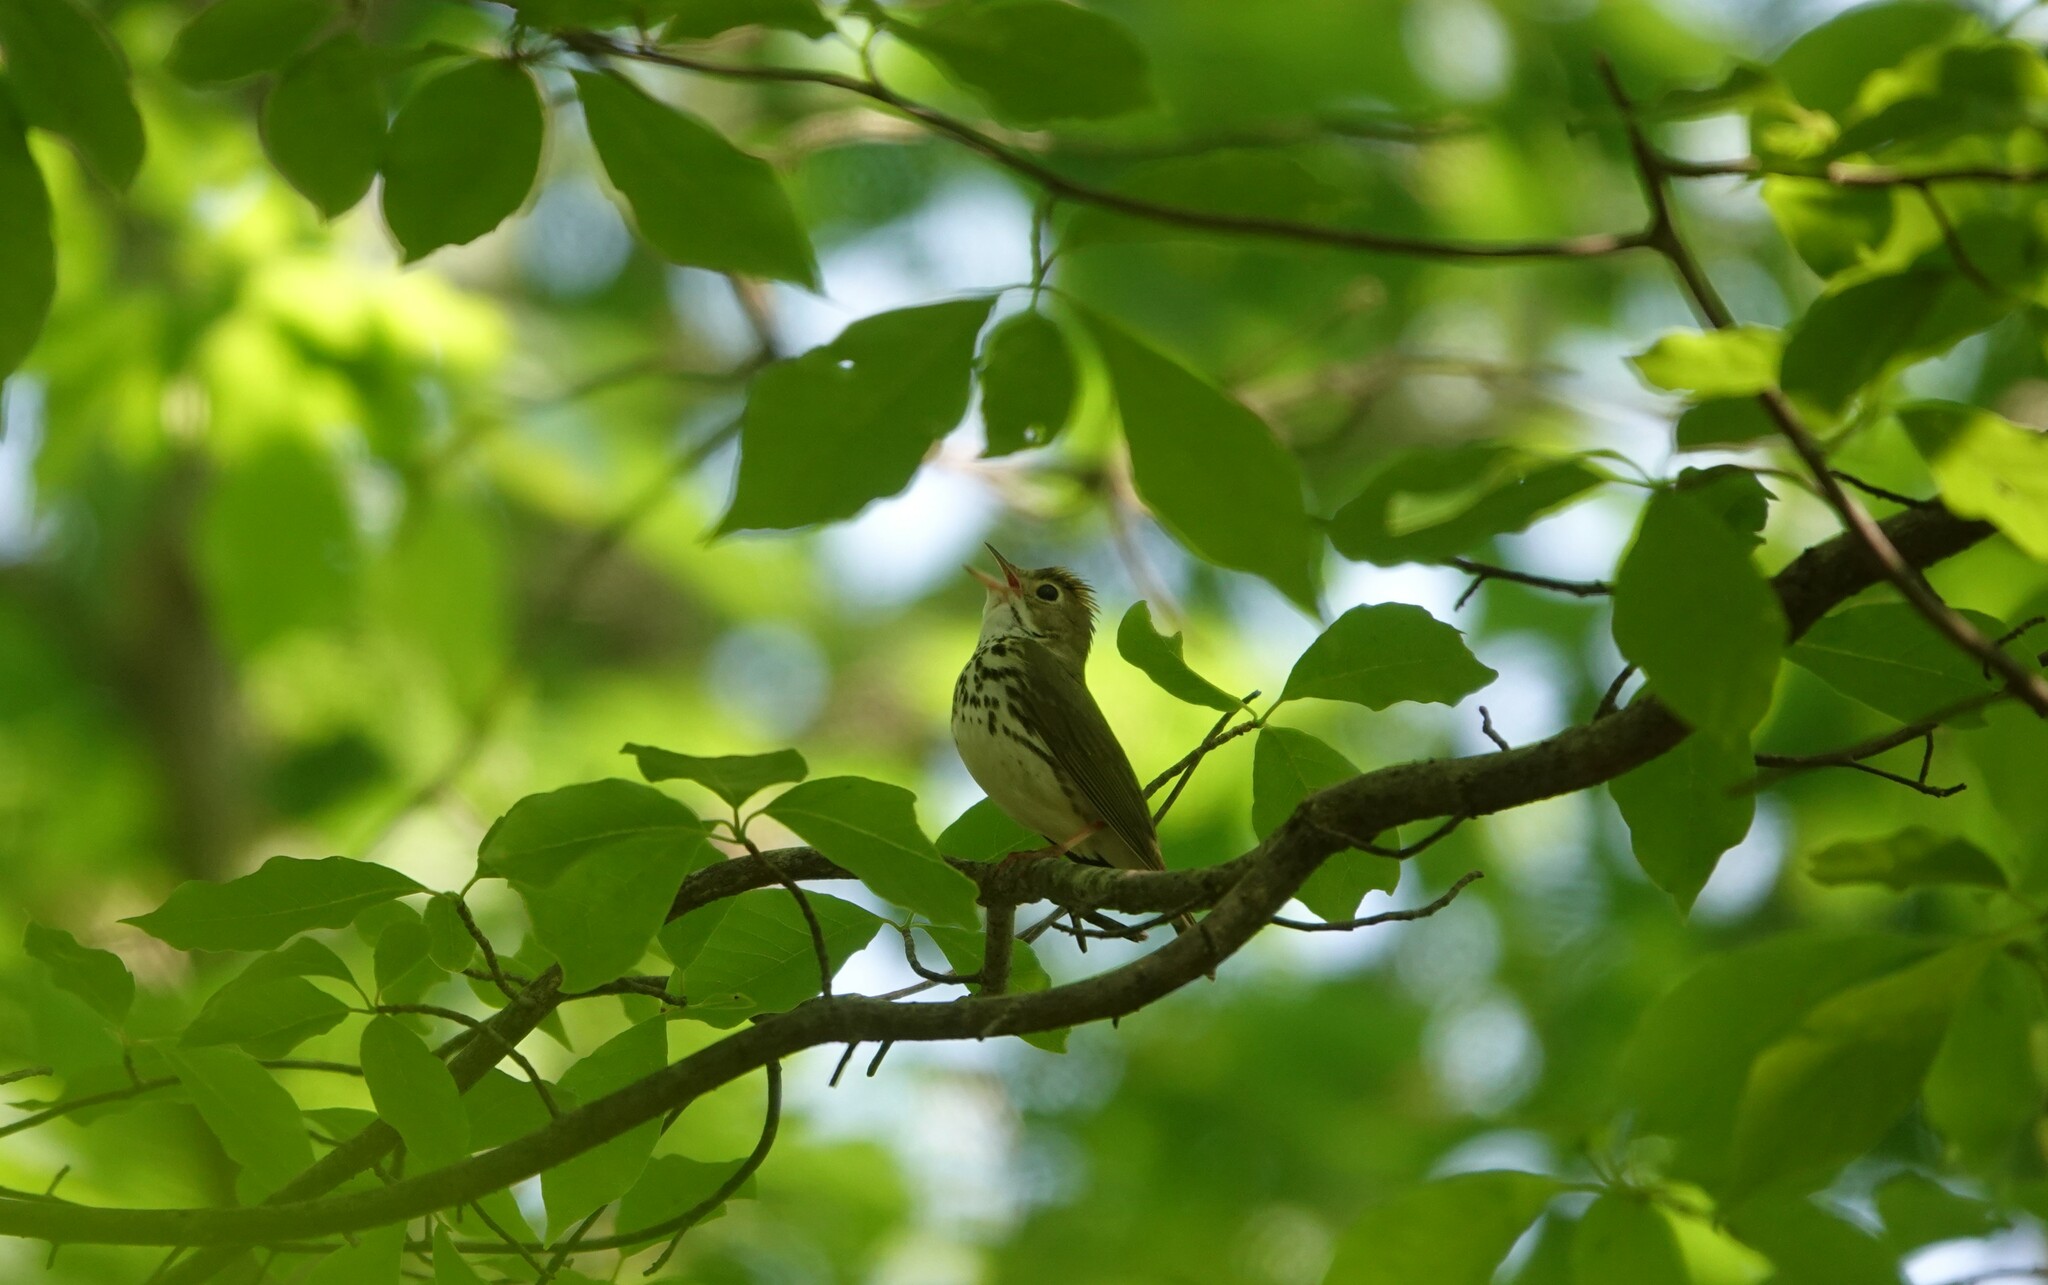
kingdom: Animalia
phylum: Chordata
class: Aves
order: Passeriformes
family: Parulidae
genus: Seiurus
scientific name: Seiurus aurocapilla
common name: Ovenbird
